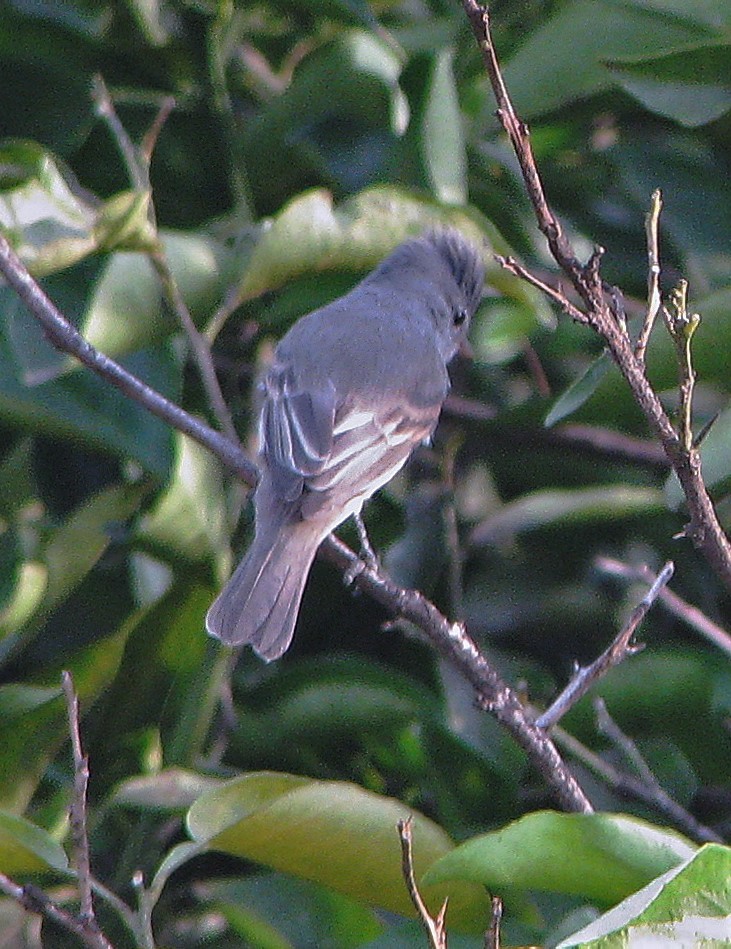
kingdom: Animalia
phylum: Chordata
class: Aves
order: Passeriformes
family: Tyrannidae
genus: Camptostoma
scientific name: Camptostoma obsoletum
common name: Southern beardless-tyrannulet
